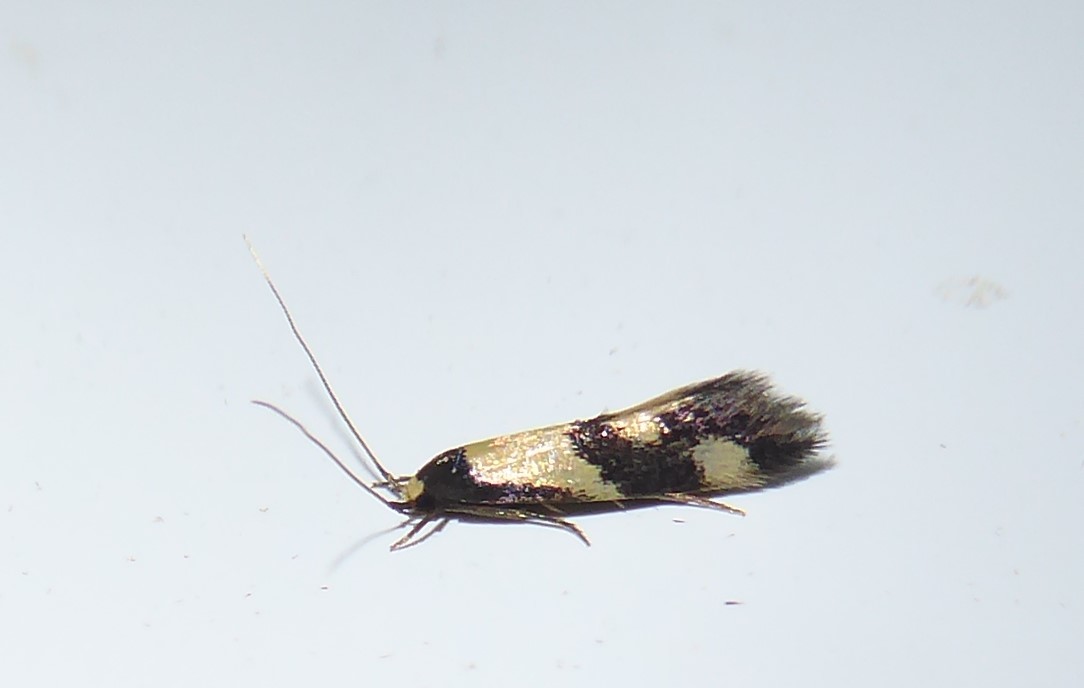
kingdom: Animalia
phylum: Arthropoda
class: Insecta
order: Lepidoptera
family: Tineidae
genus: Opogona
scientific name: Opogona comptella
